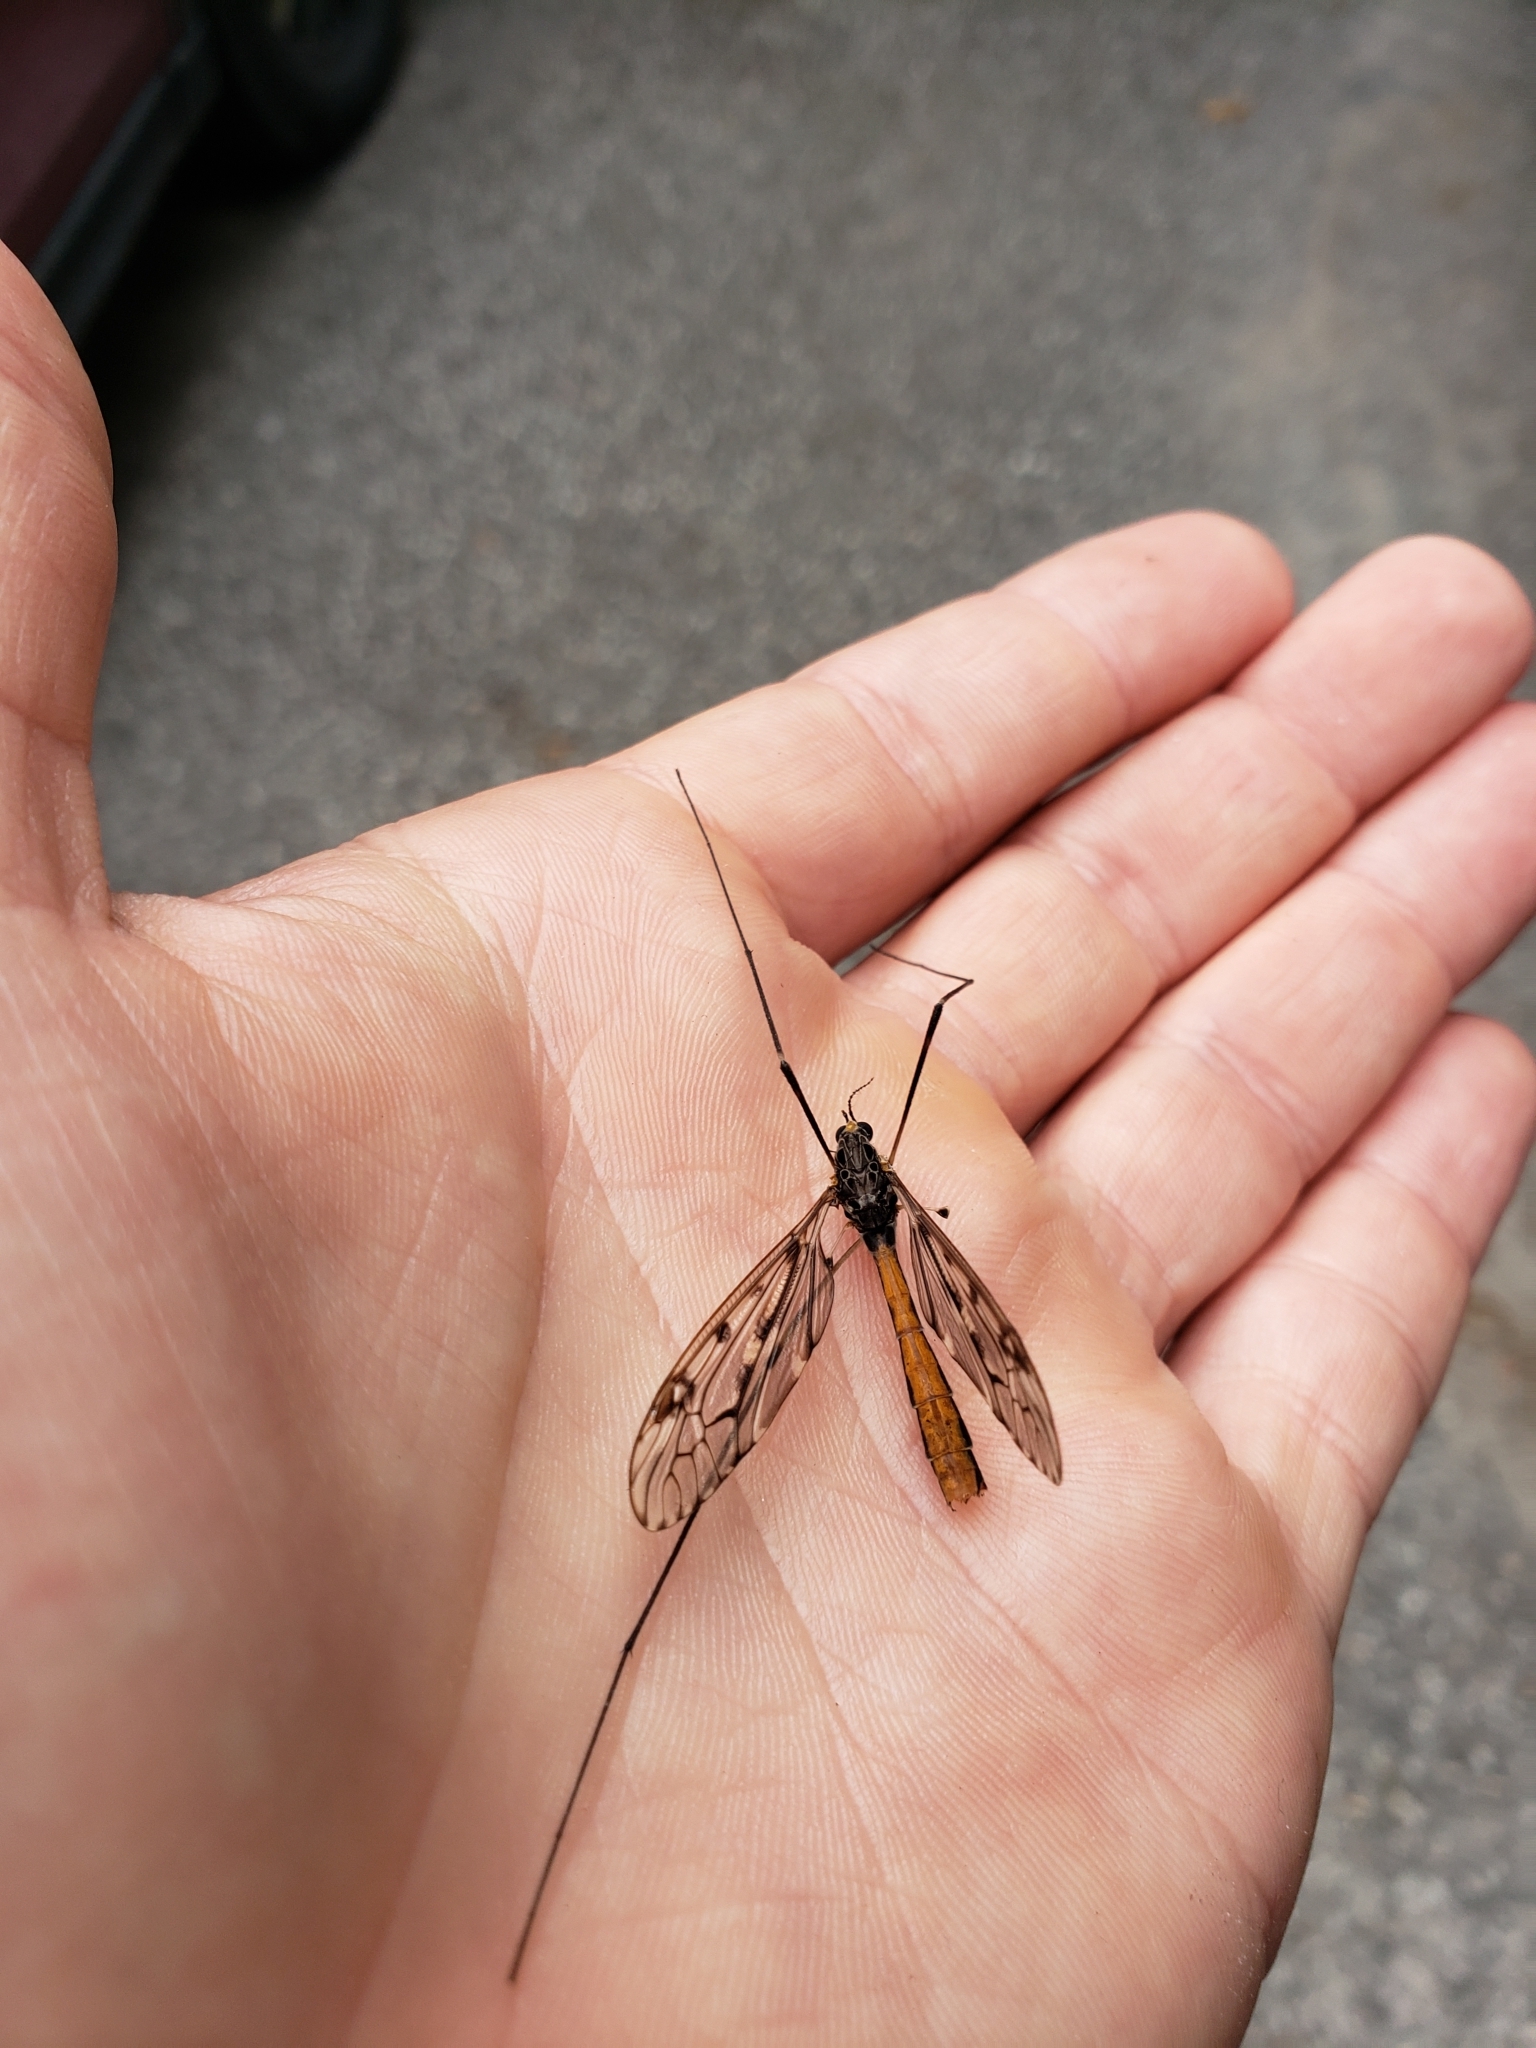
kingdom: Animalia
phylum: Arthropoda
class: Insecta
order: Diptera
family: Tipulidae
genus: Tipula
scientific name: Tipula abdominalis
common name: Giant crane fly
